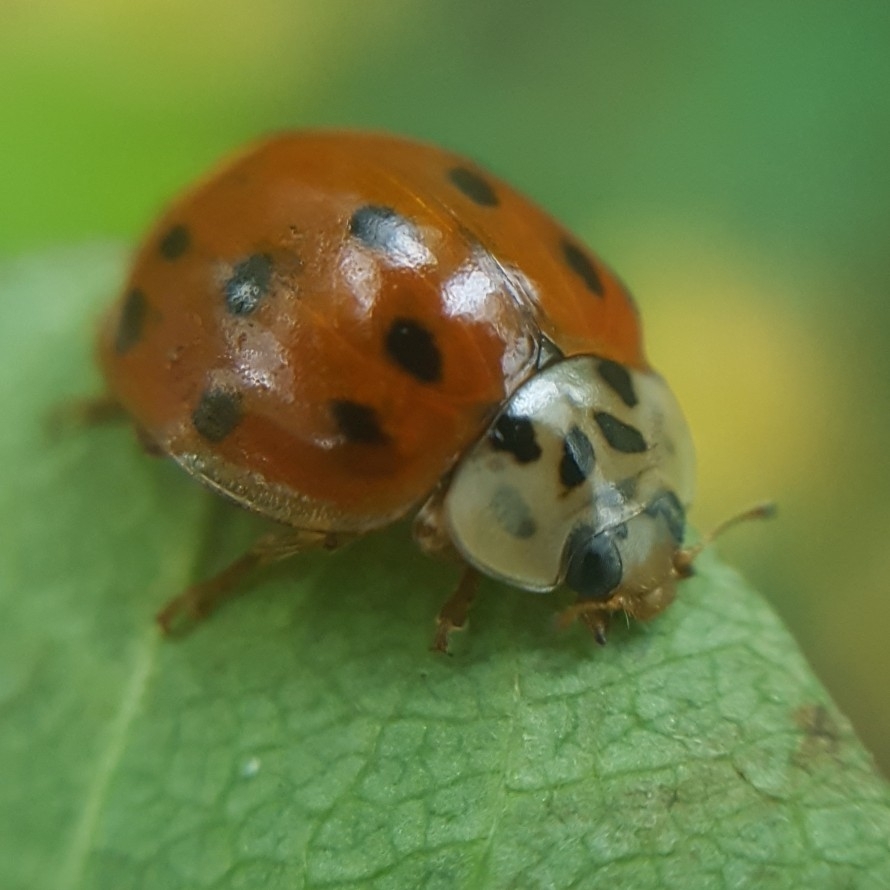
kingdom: Animalia
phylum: Arthropoda
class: Insecta
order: Coleoptera
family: Coccinellidae
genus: Harmonia
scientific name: Harmonia axyridis
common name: Harlequin ladybird
